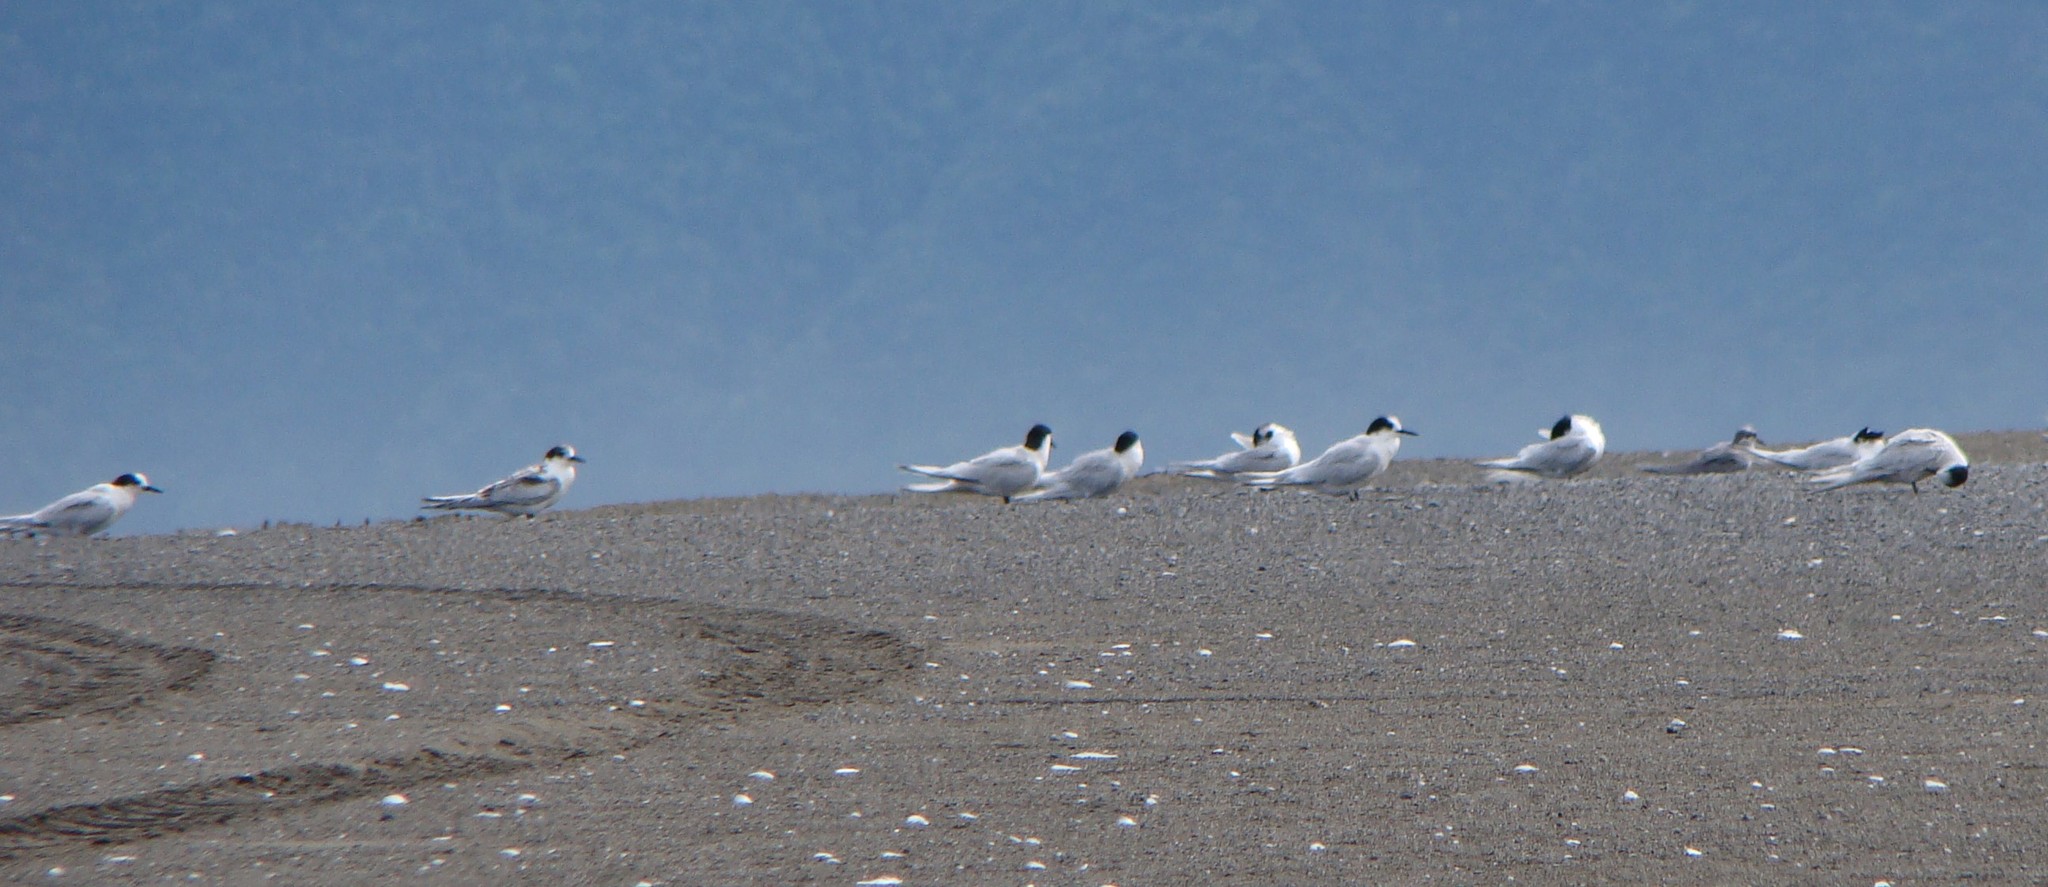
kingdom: Animalia
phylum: Chordata
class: Aves
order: Charadriiformes
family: Laridae
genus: Sterna
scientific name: Sterna striata
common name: White-fronted tern
